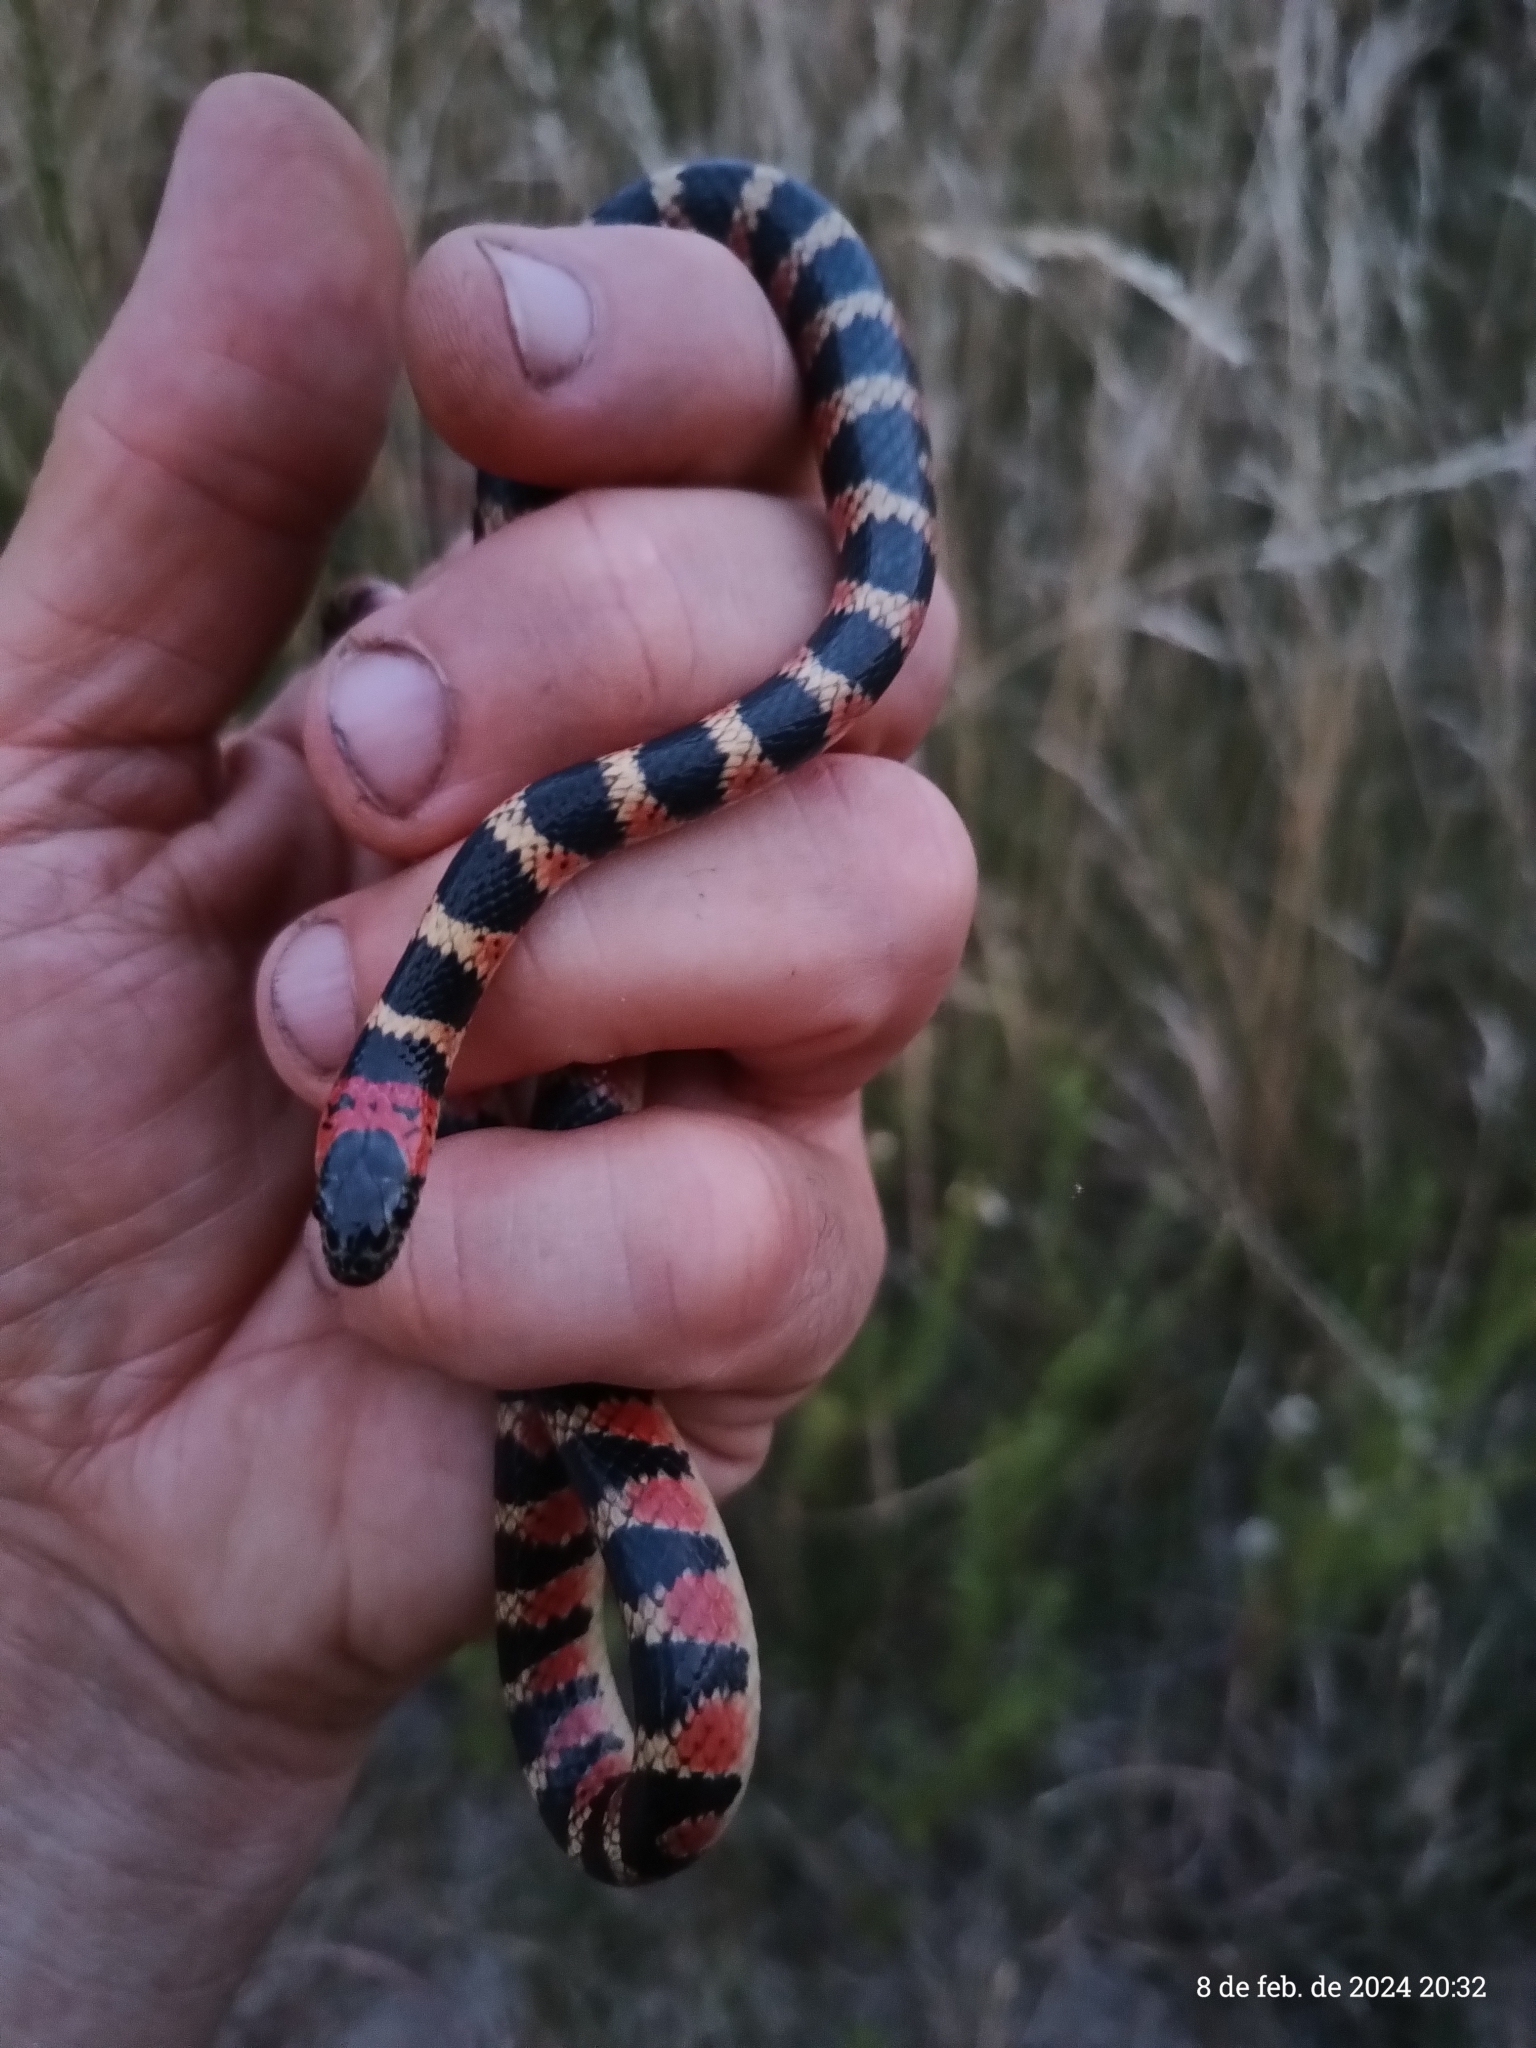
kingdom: Animalia
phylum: Chordata
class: Squamata
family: Colubridae
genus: Oxyrhopus
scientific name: Oxyrhopus rhombifer
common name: Amazon false coral snake
